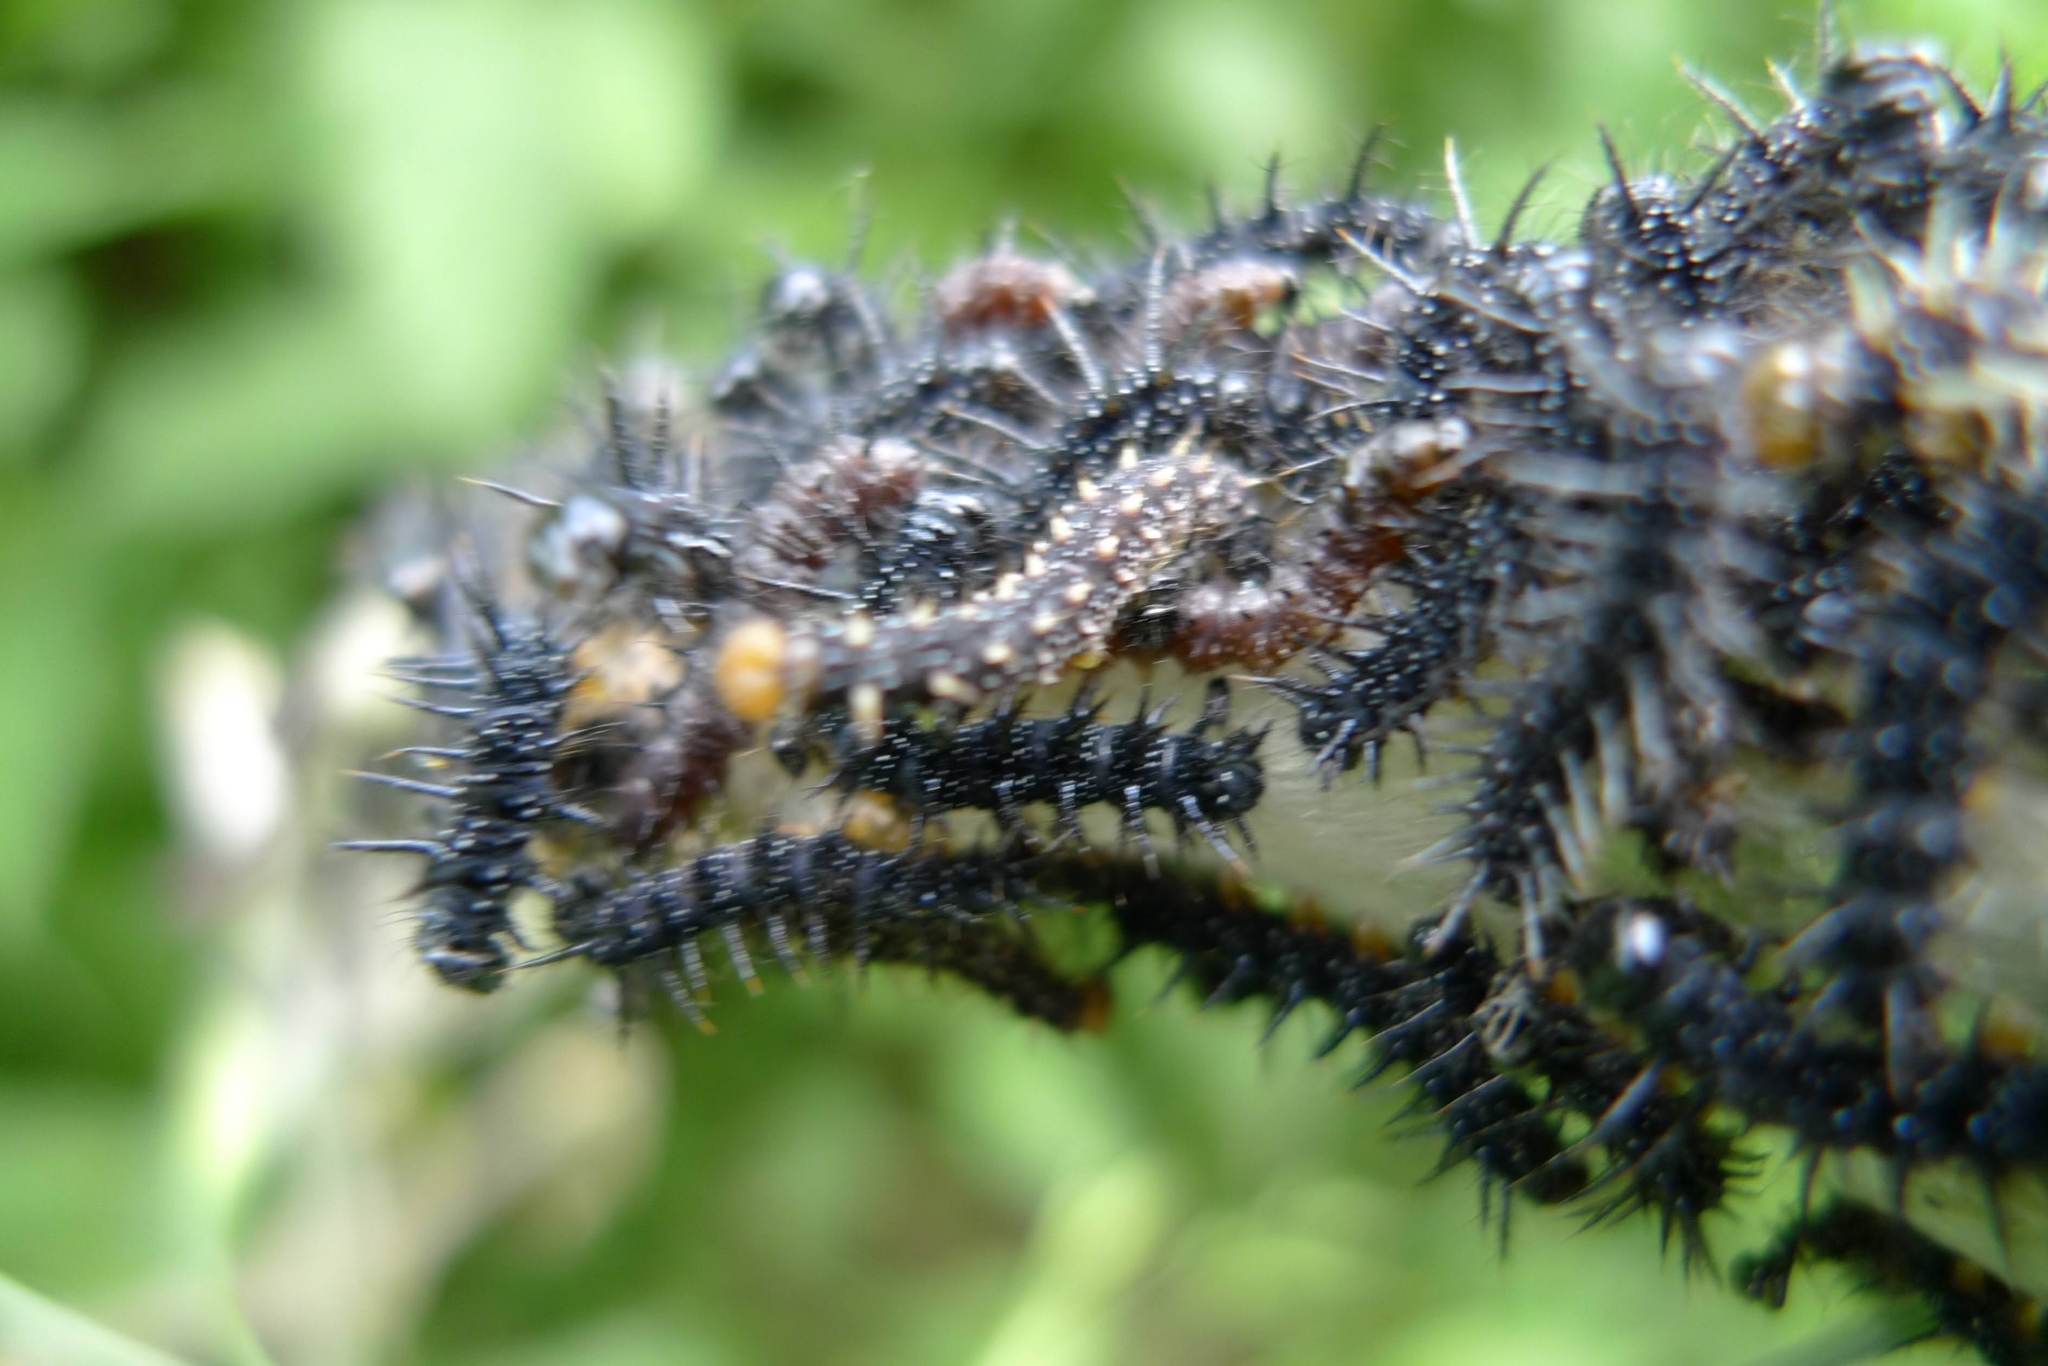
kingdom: Animalia
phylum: Arthropoda
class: Insecta
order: Lepidoptera
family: Nymphalidae
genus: Aglais
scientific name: Aglais io
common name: Peacock
